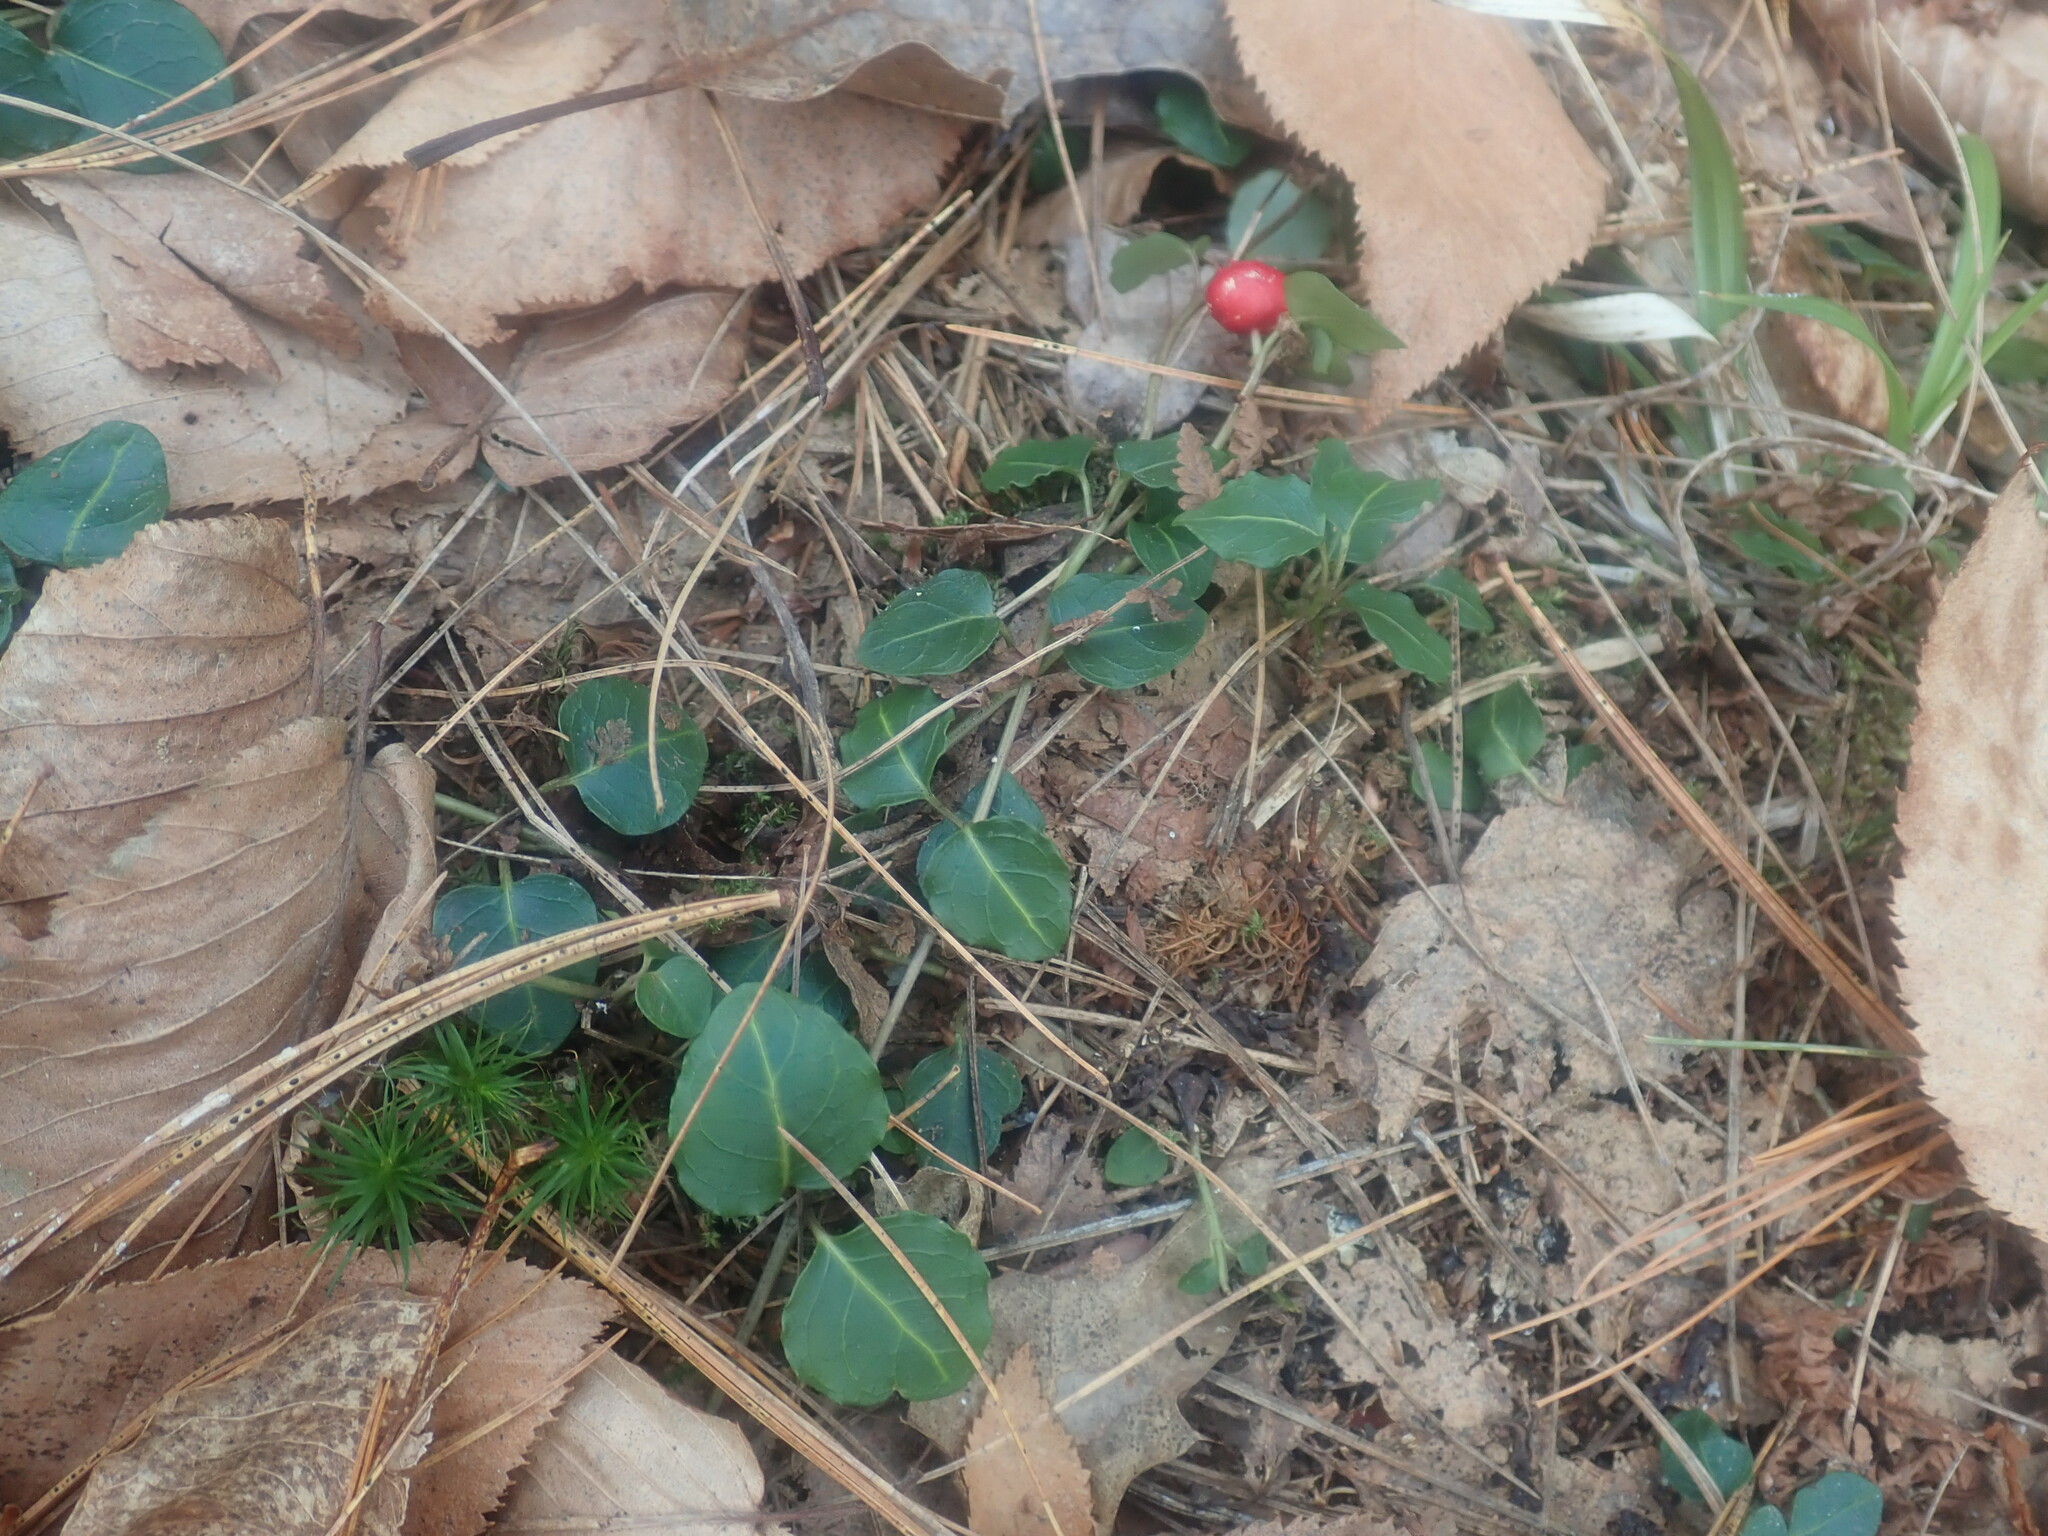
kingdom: Plantae
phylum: Tracheophyta
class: Magnoliopsida
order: Gentianales
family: Rubiaceae
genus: Mitchella
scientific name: Mitchella repens
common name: Partridge-berry
